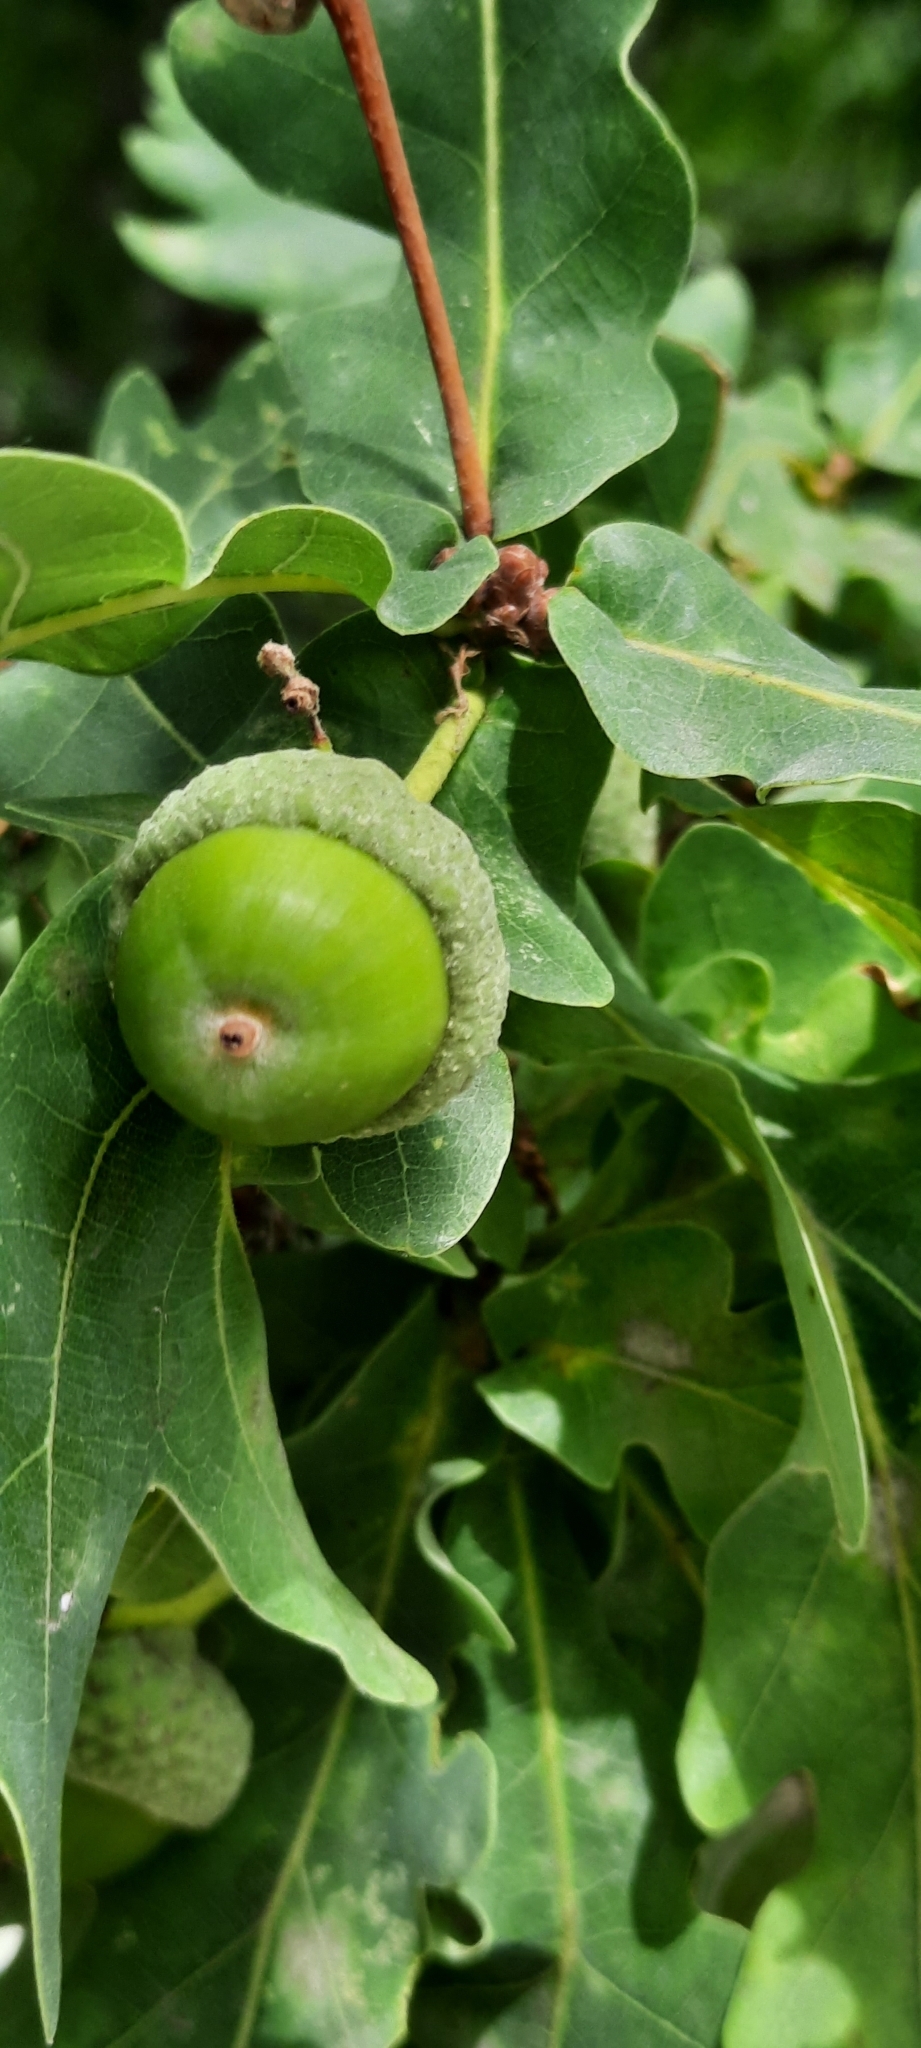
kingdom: Plantae
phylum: Tracheophyta
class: Magnoliopsida
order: Fagales
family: Fagaceae
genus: Quercus
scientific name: Quercus robur
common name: Pedunculate oak
